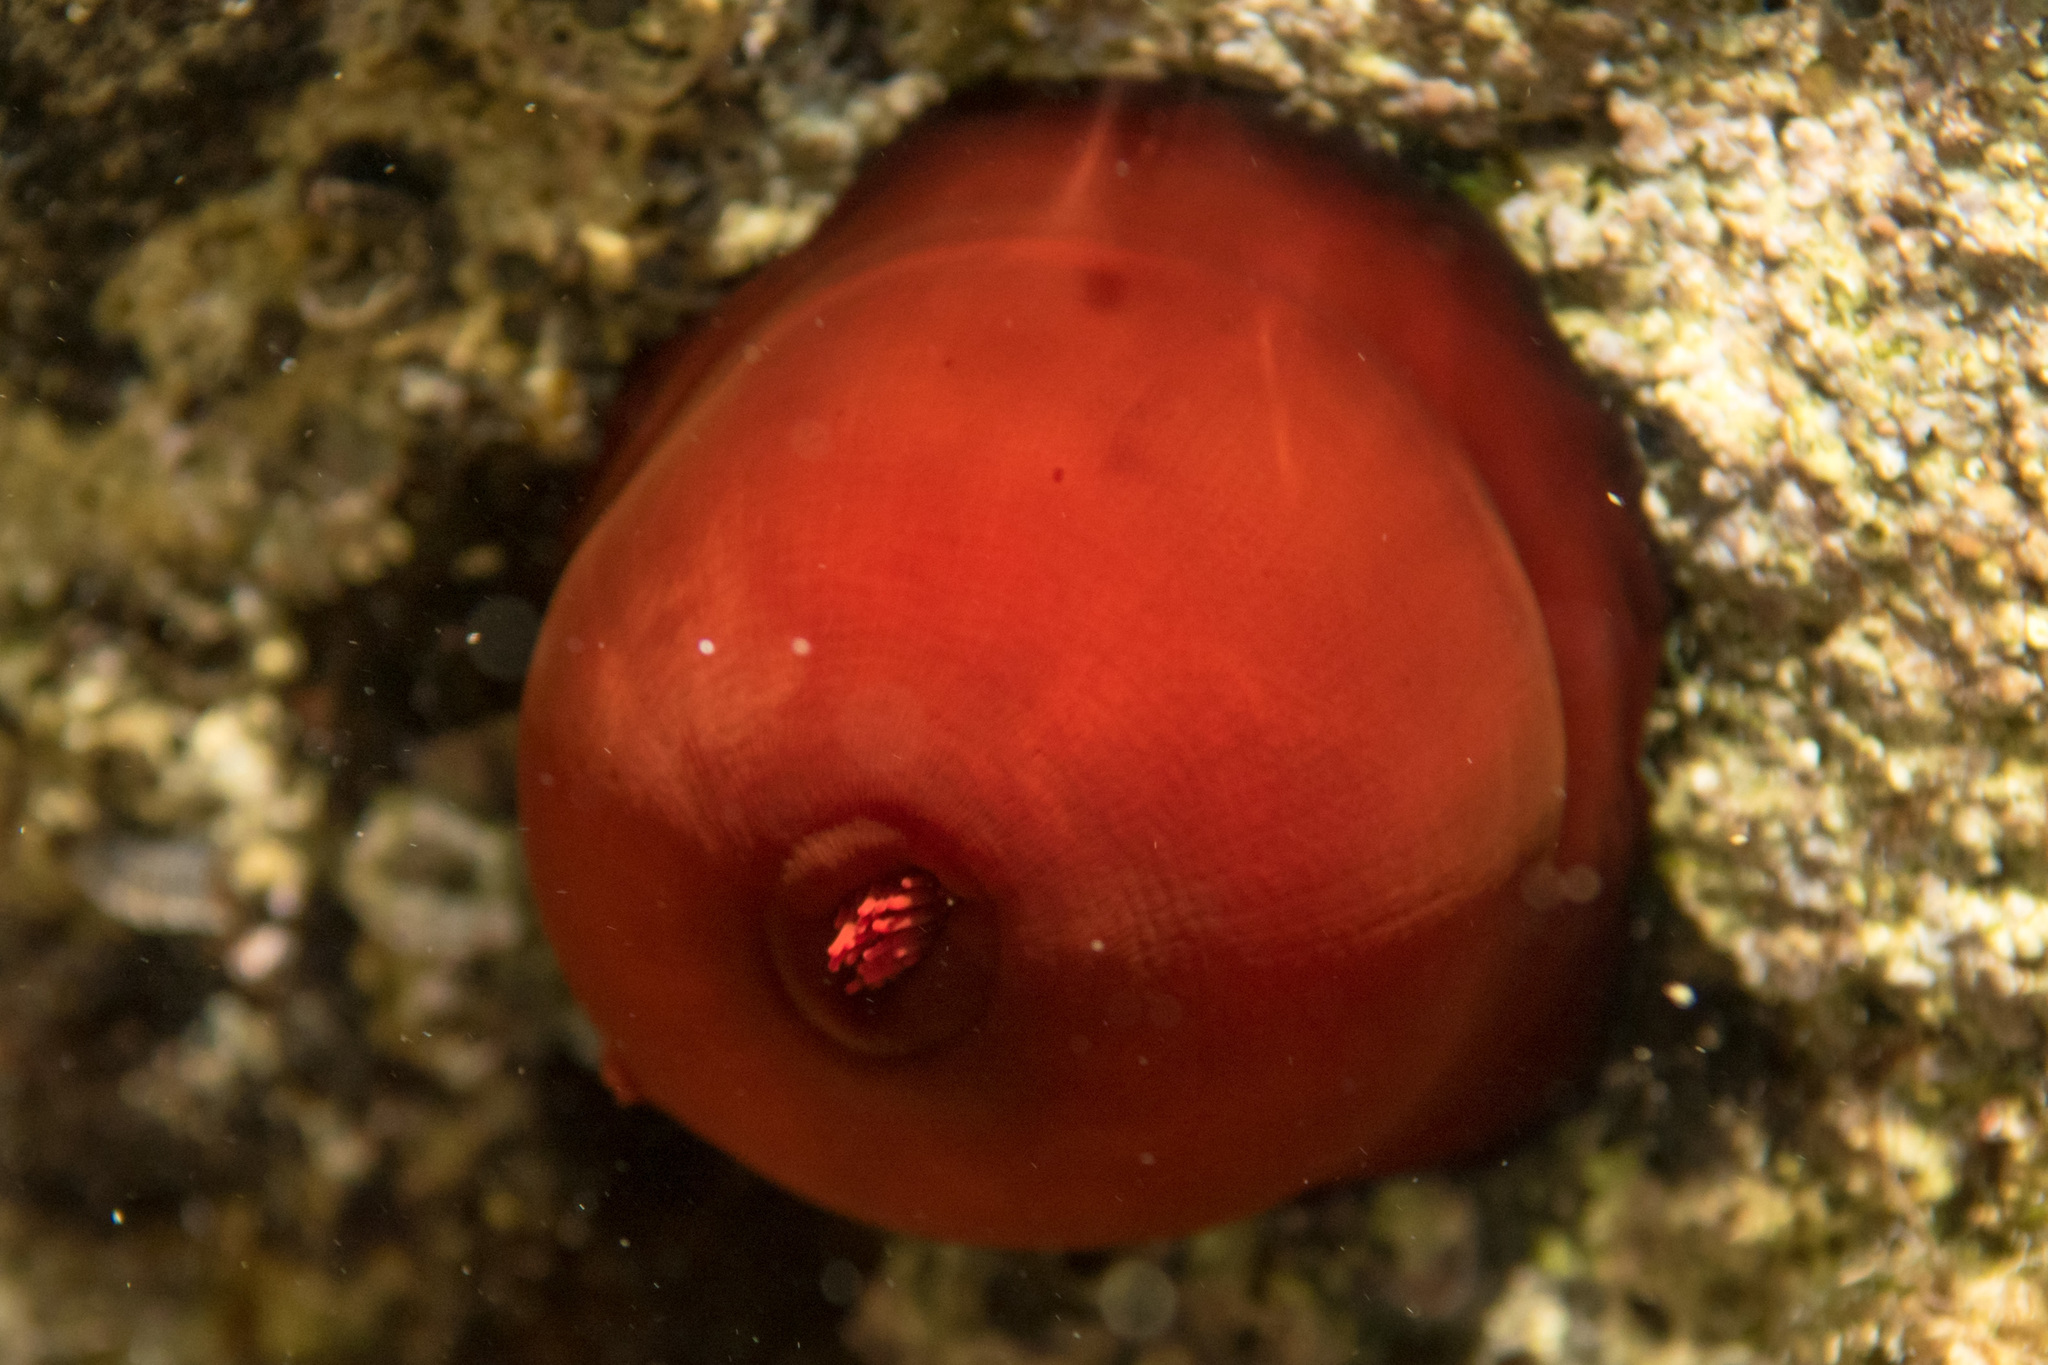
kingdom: Animalia
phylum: Cnidaria
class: Anthozoa
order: Actiniaria
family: Actiniidae
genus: Actinia
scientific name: Actinia mediterranea
